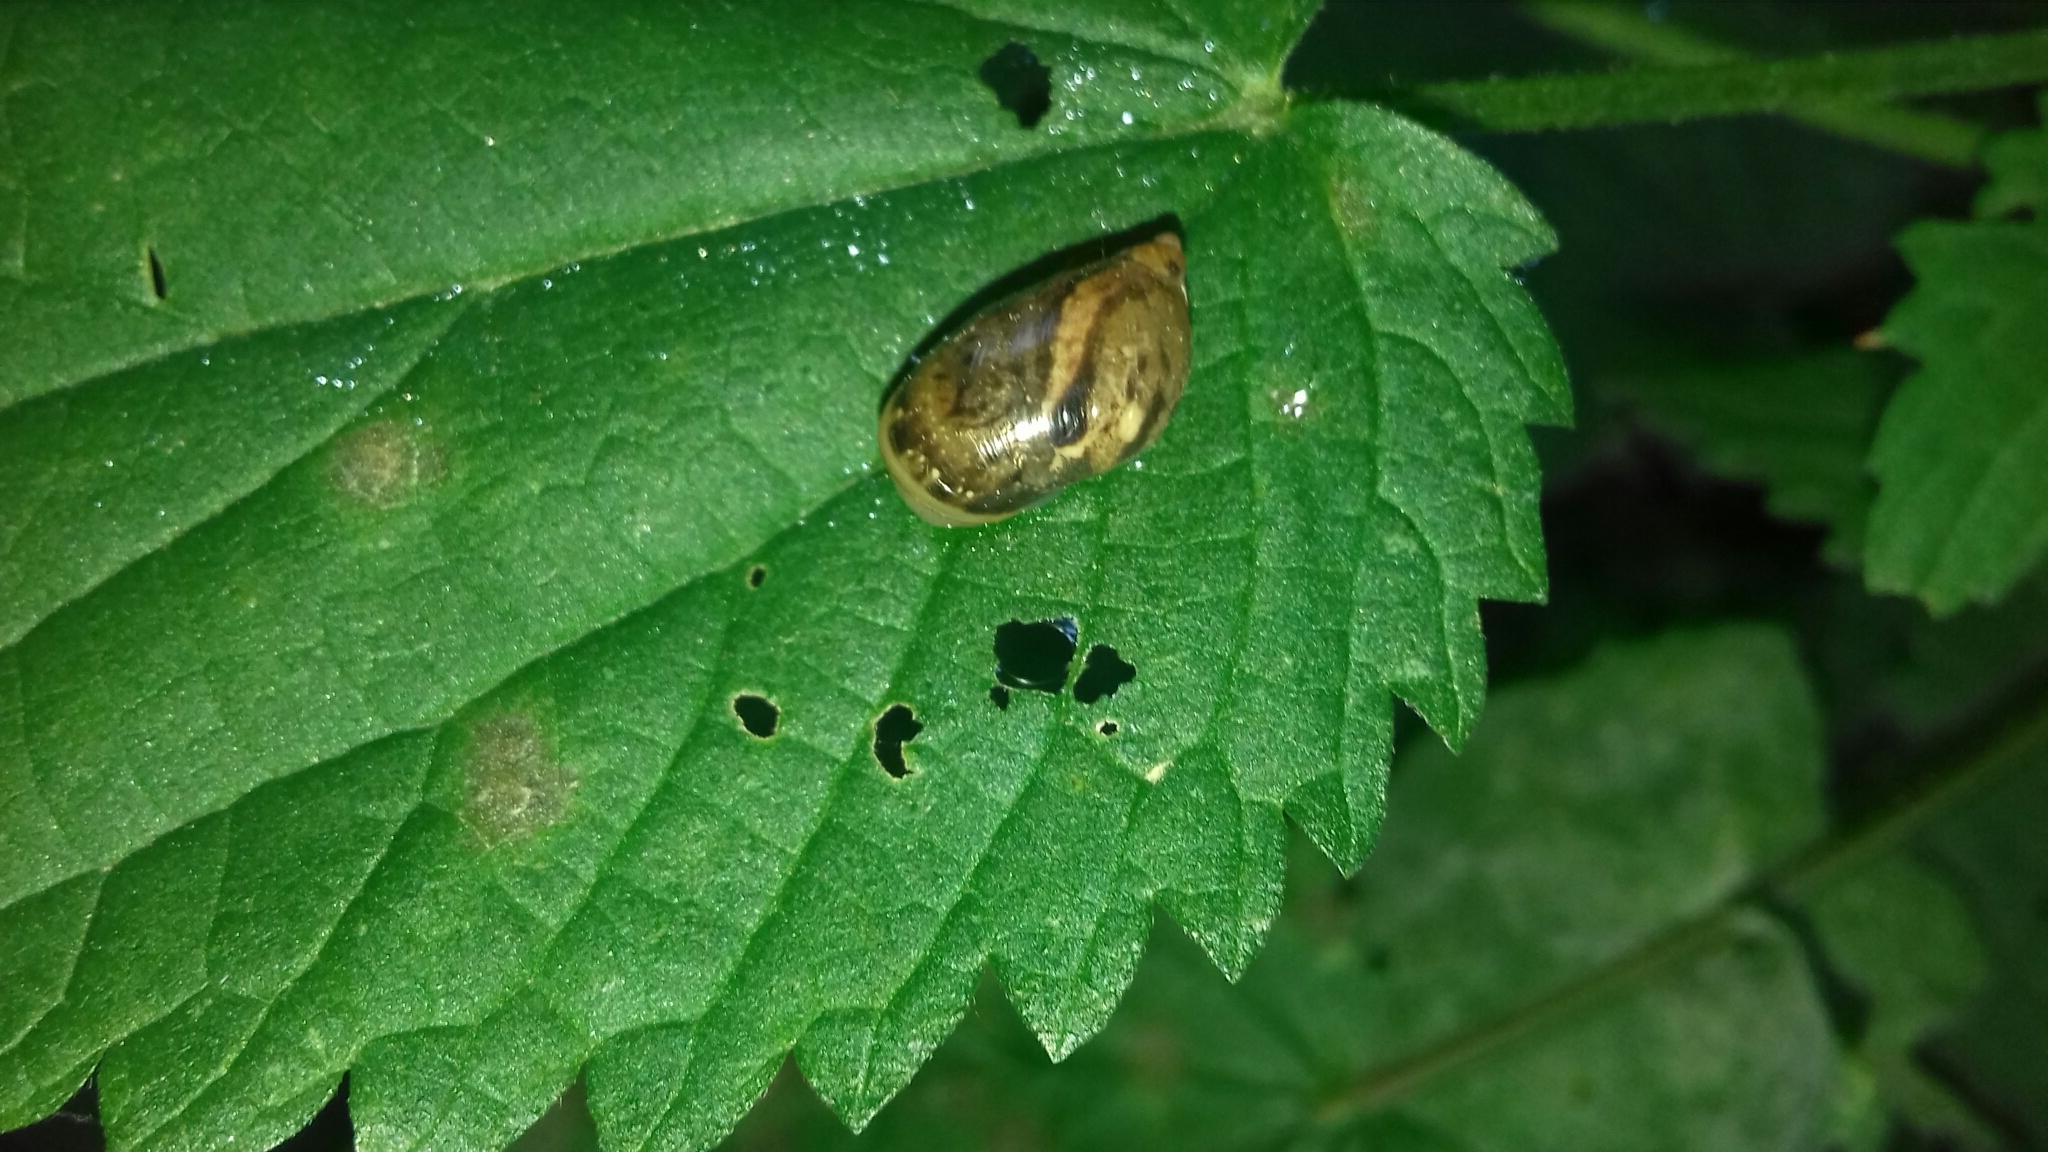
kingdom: Animalia
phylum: Mollusca
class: Gastropoda
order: Stylommatophora
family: Succineidae
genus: Succinea
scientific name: Succinea putris
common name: European ambersnail
